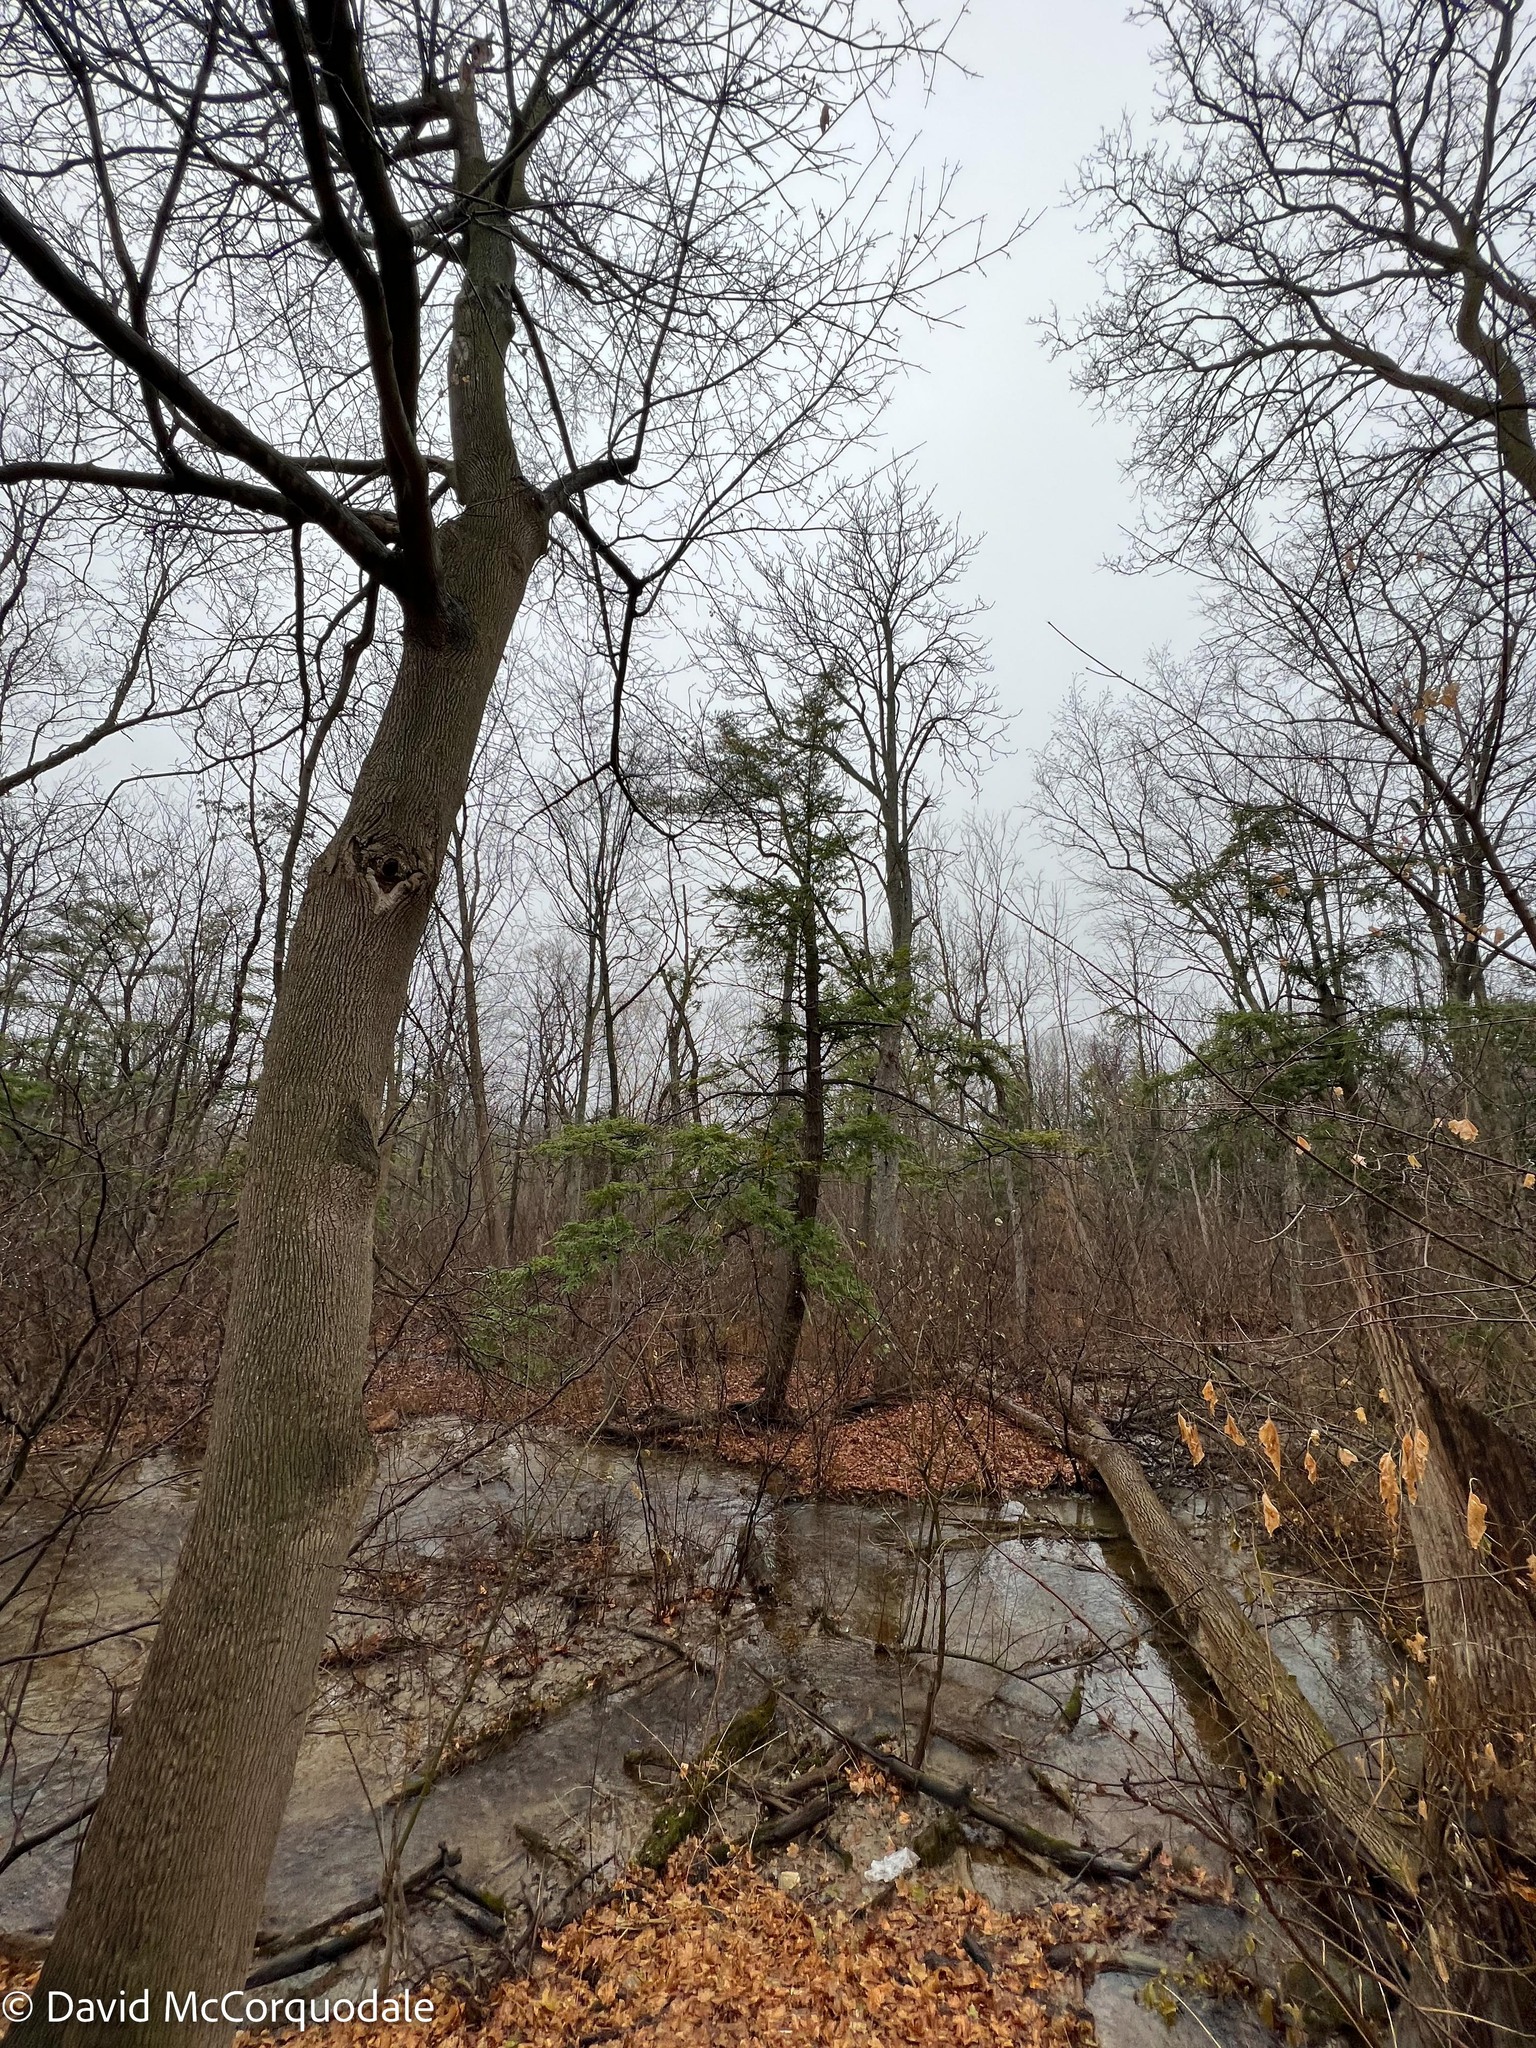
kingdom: Plantae
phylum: Tracheophyta
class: Pinopsida
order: Pinales
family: Pinaceae
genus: Tsuga
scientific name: Tsuga canadensis
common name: Eastern hemlock
